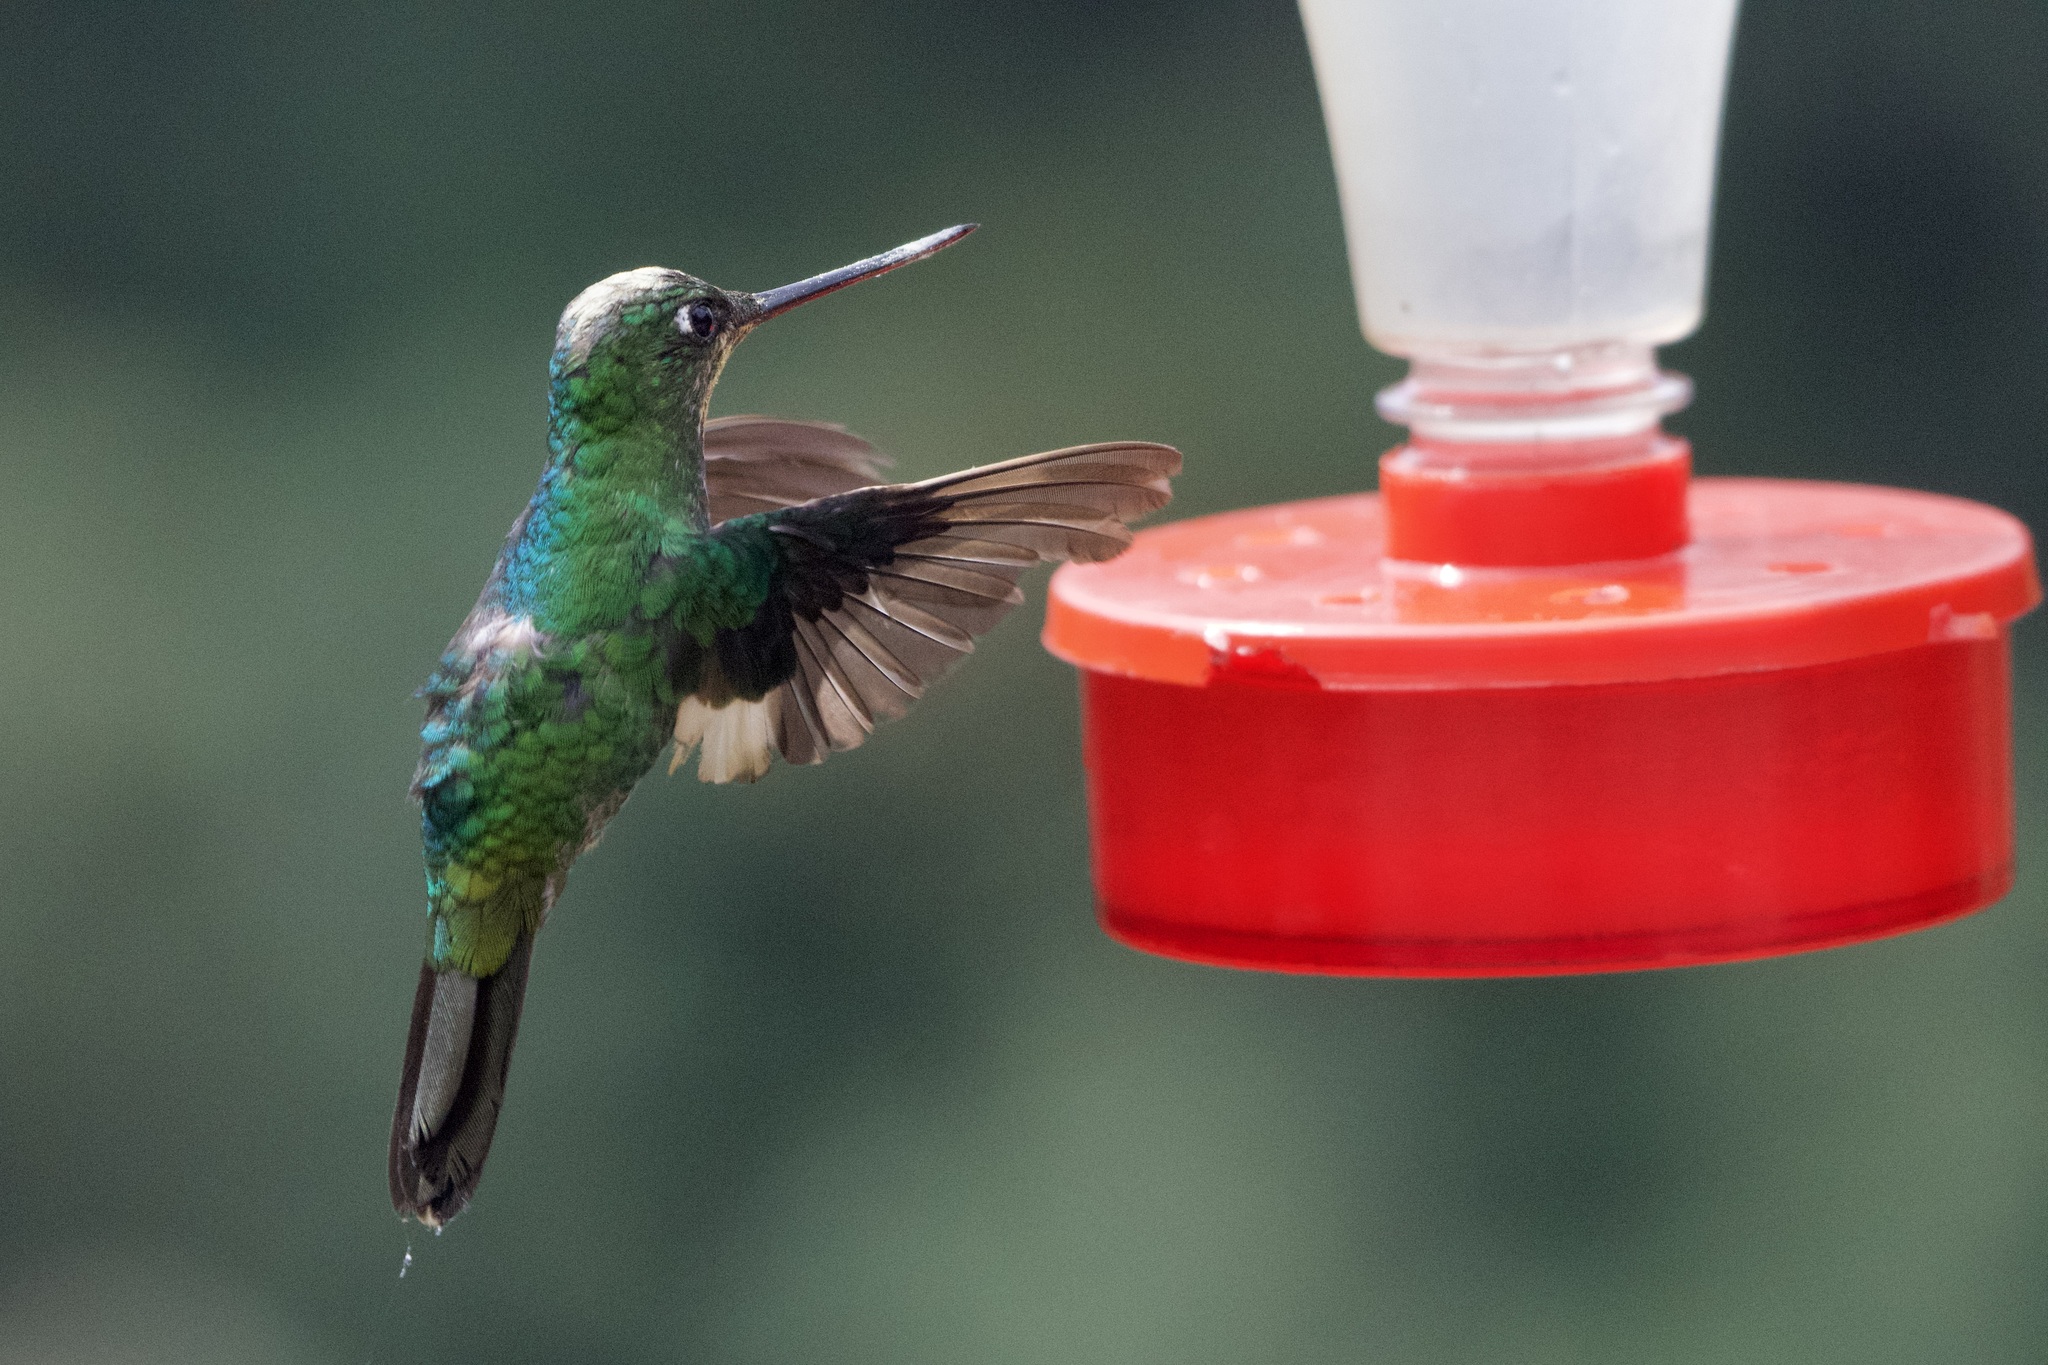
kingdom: Animalia
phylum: Chordata
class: Aves
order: Apodiformes
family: Trochilidae
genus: Coeligena
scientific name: Coeligena lutetiae
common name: Buff-winged starfrontlet
